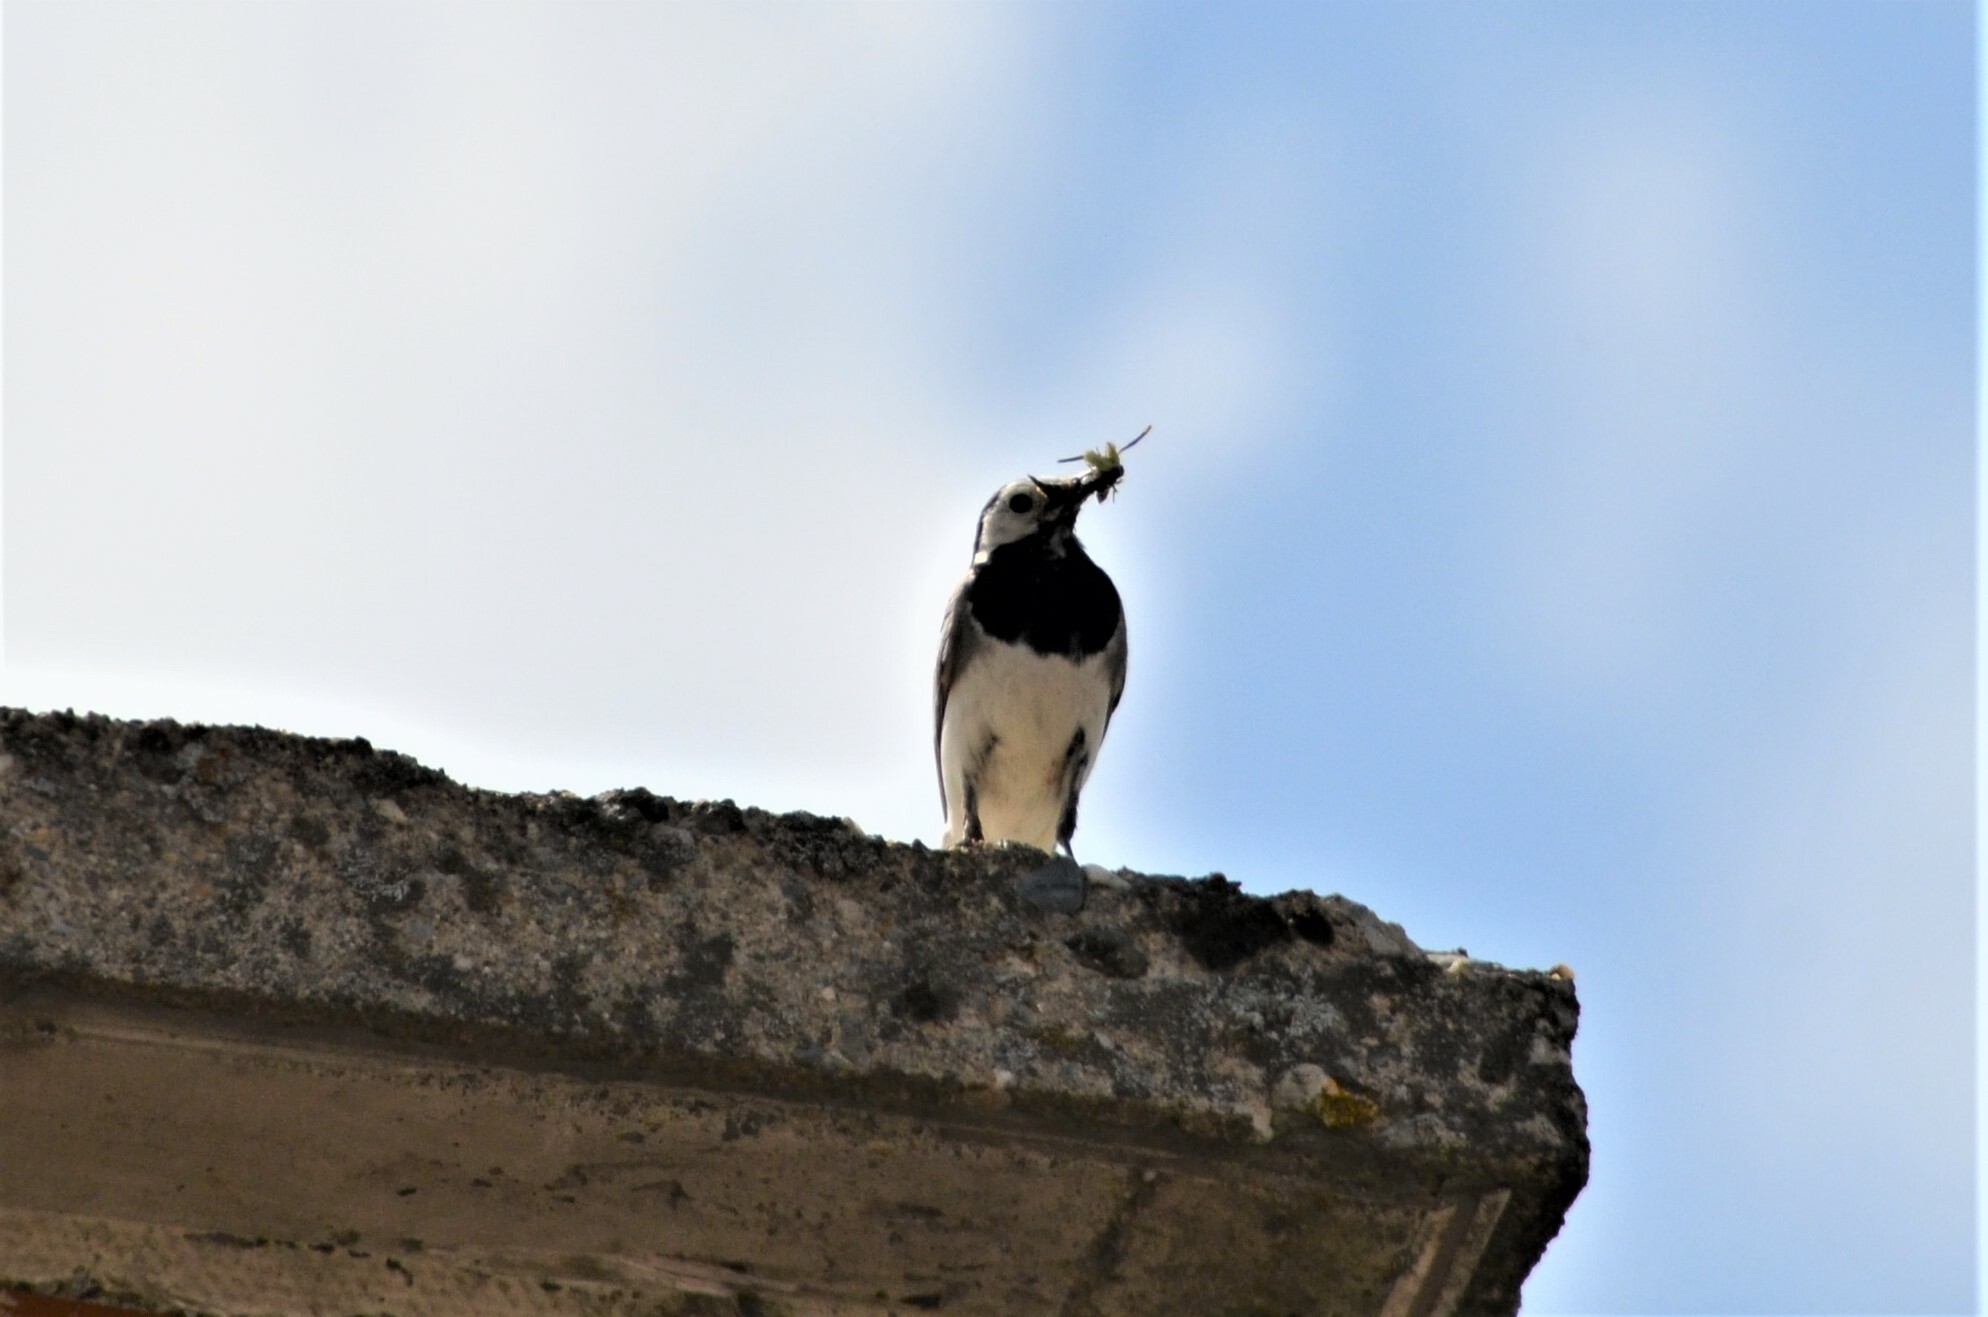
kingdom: Animalia
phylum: Chordata
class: Aves
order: Passeriformes
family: Motacillidae
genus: Motacilla
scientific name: Motacilla alba
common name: White wagtail
